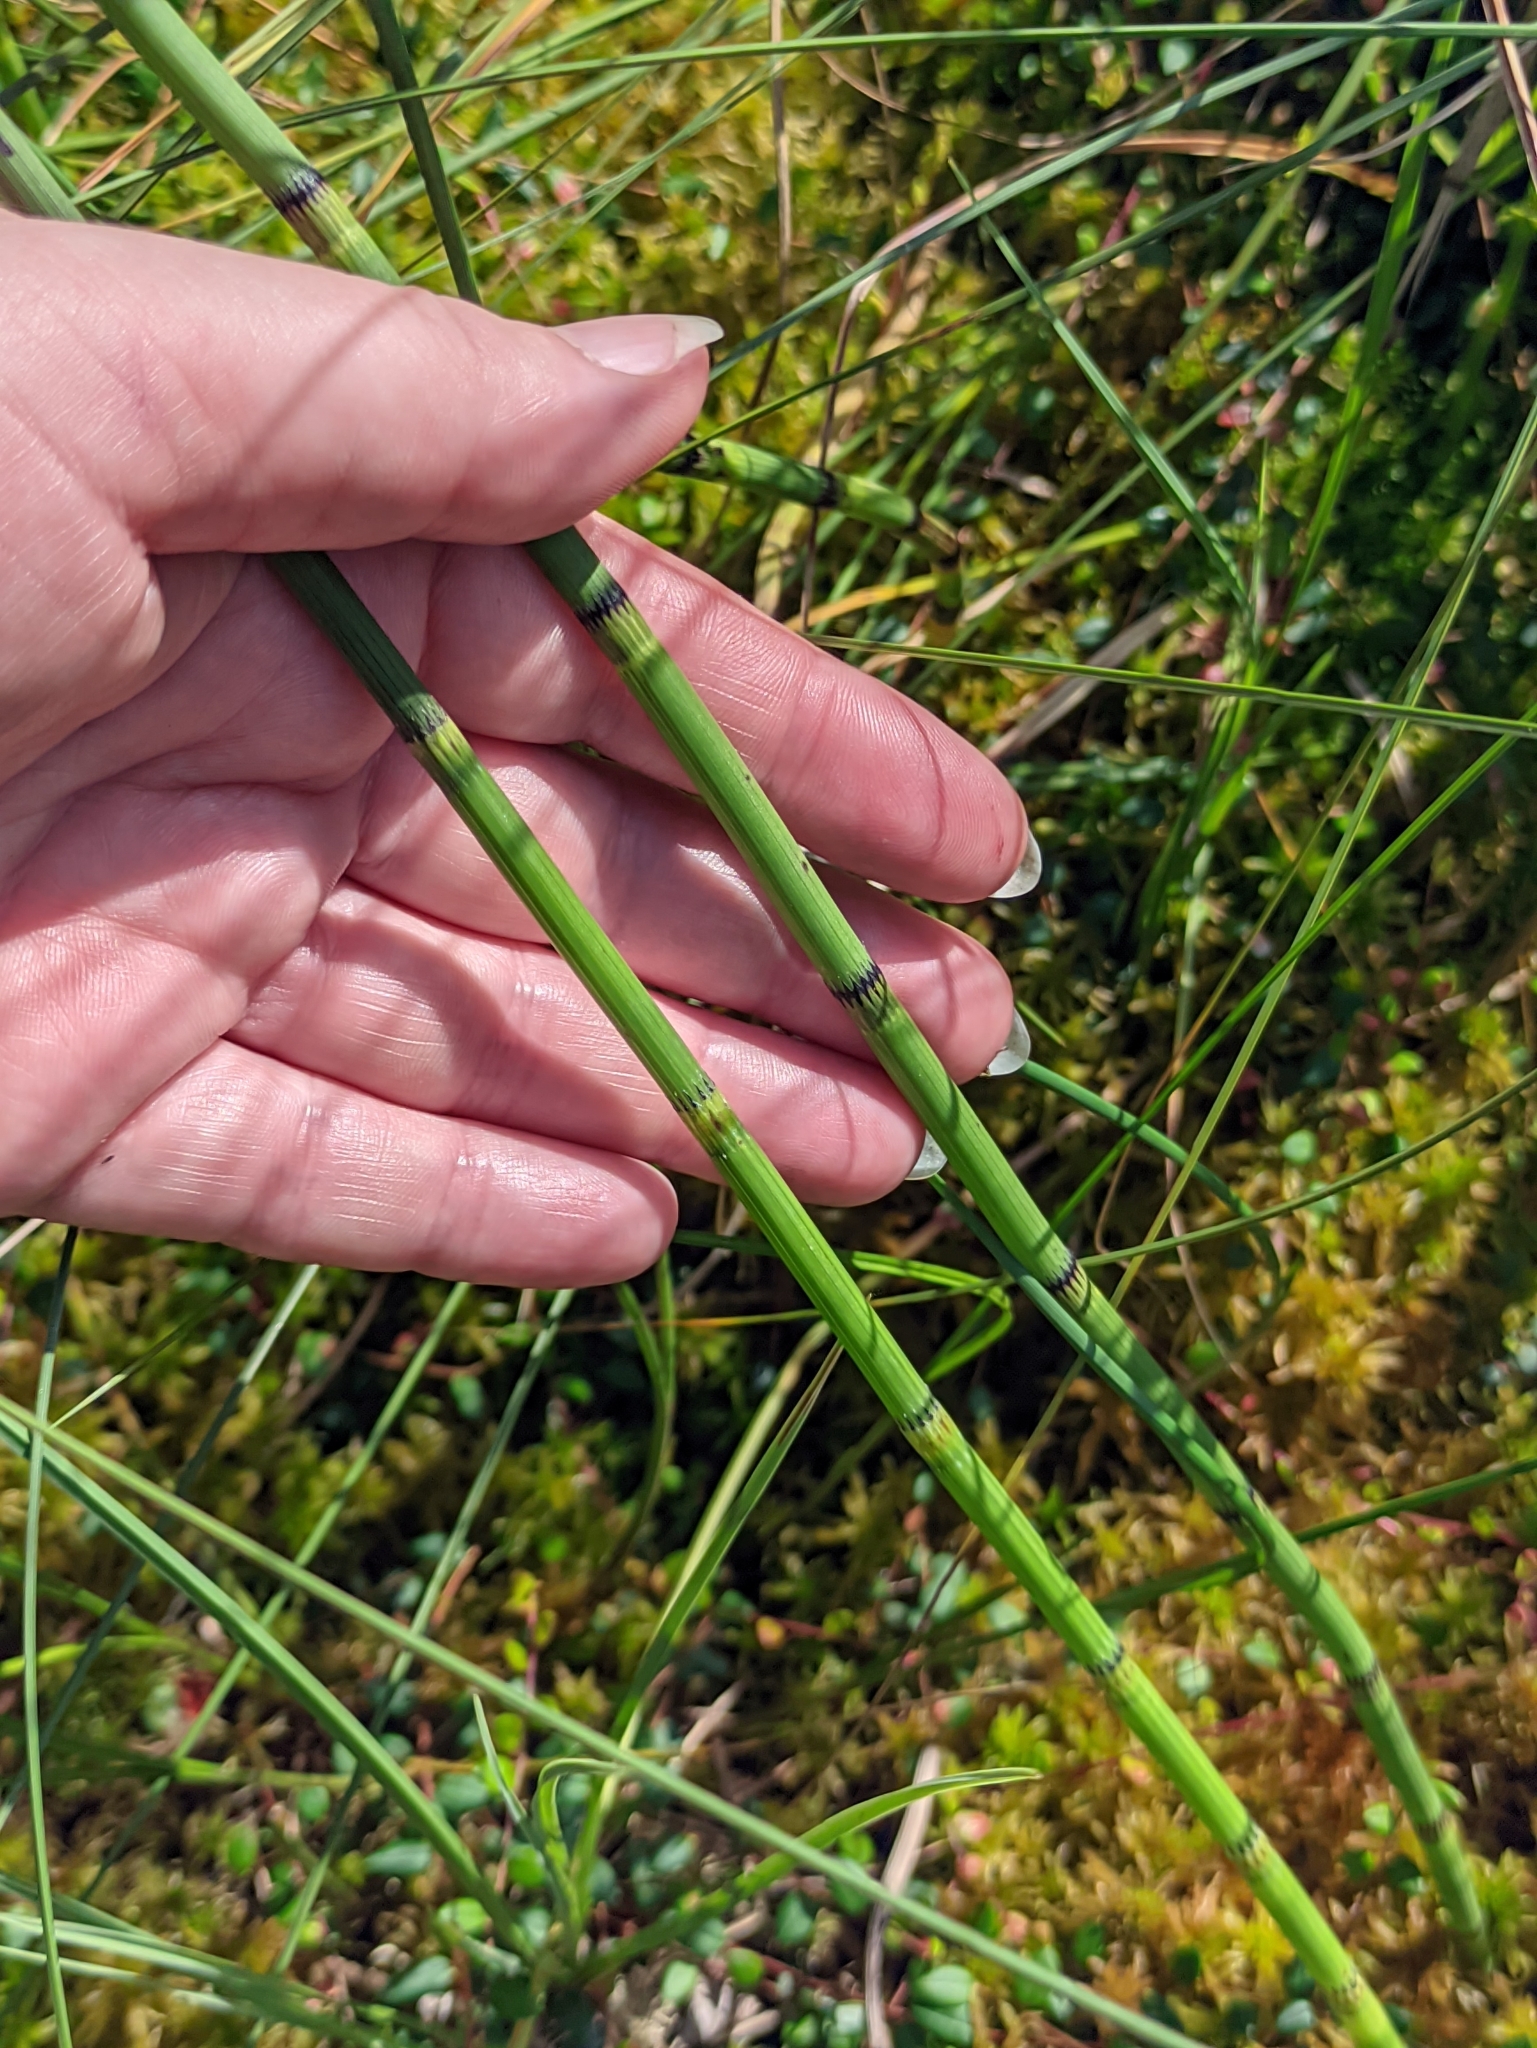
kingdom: Plantae
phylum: Tracheophyta
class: Polypodiopsida
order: Equisetales
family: Equisetaceae
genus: Equisetum
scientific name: Equisetum fluviatile
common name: Water horsetail
